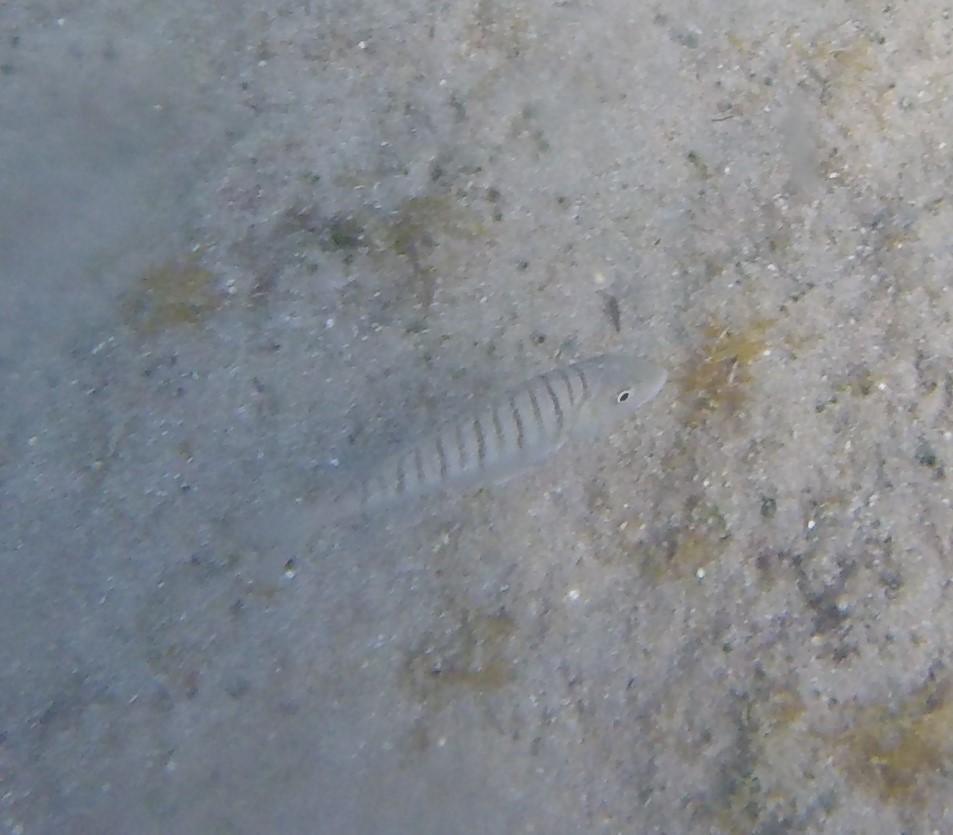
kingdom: Animalia
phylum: Chordata
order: Perciformes
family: Sparidae
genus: Lithognathus
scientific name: Lithognathus mormyrus
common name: Sand steenbras
